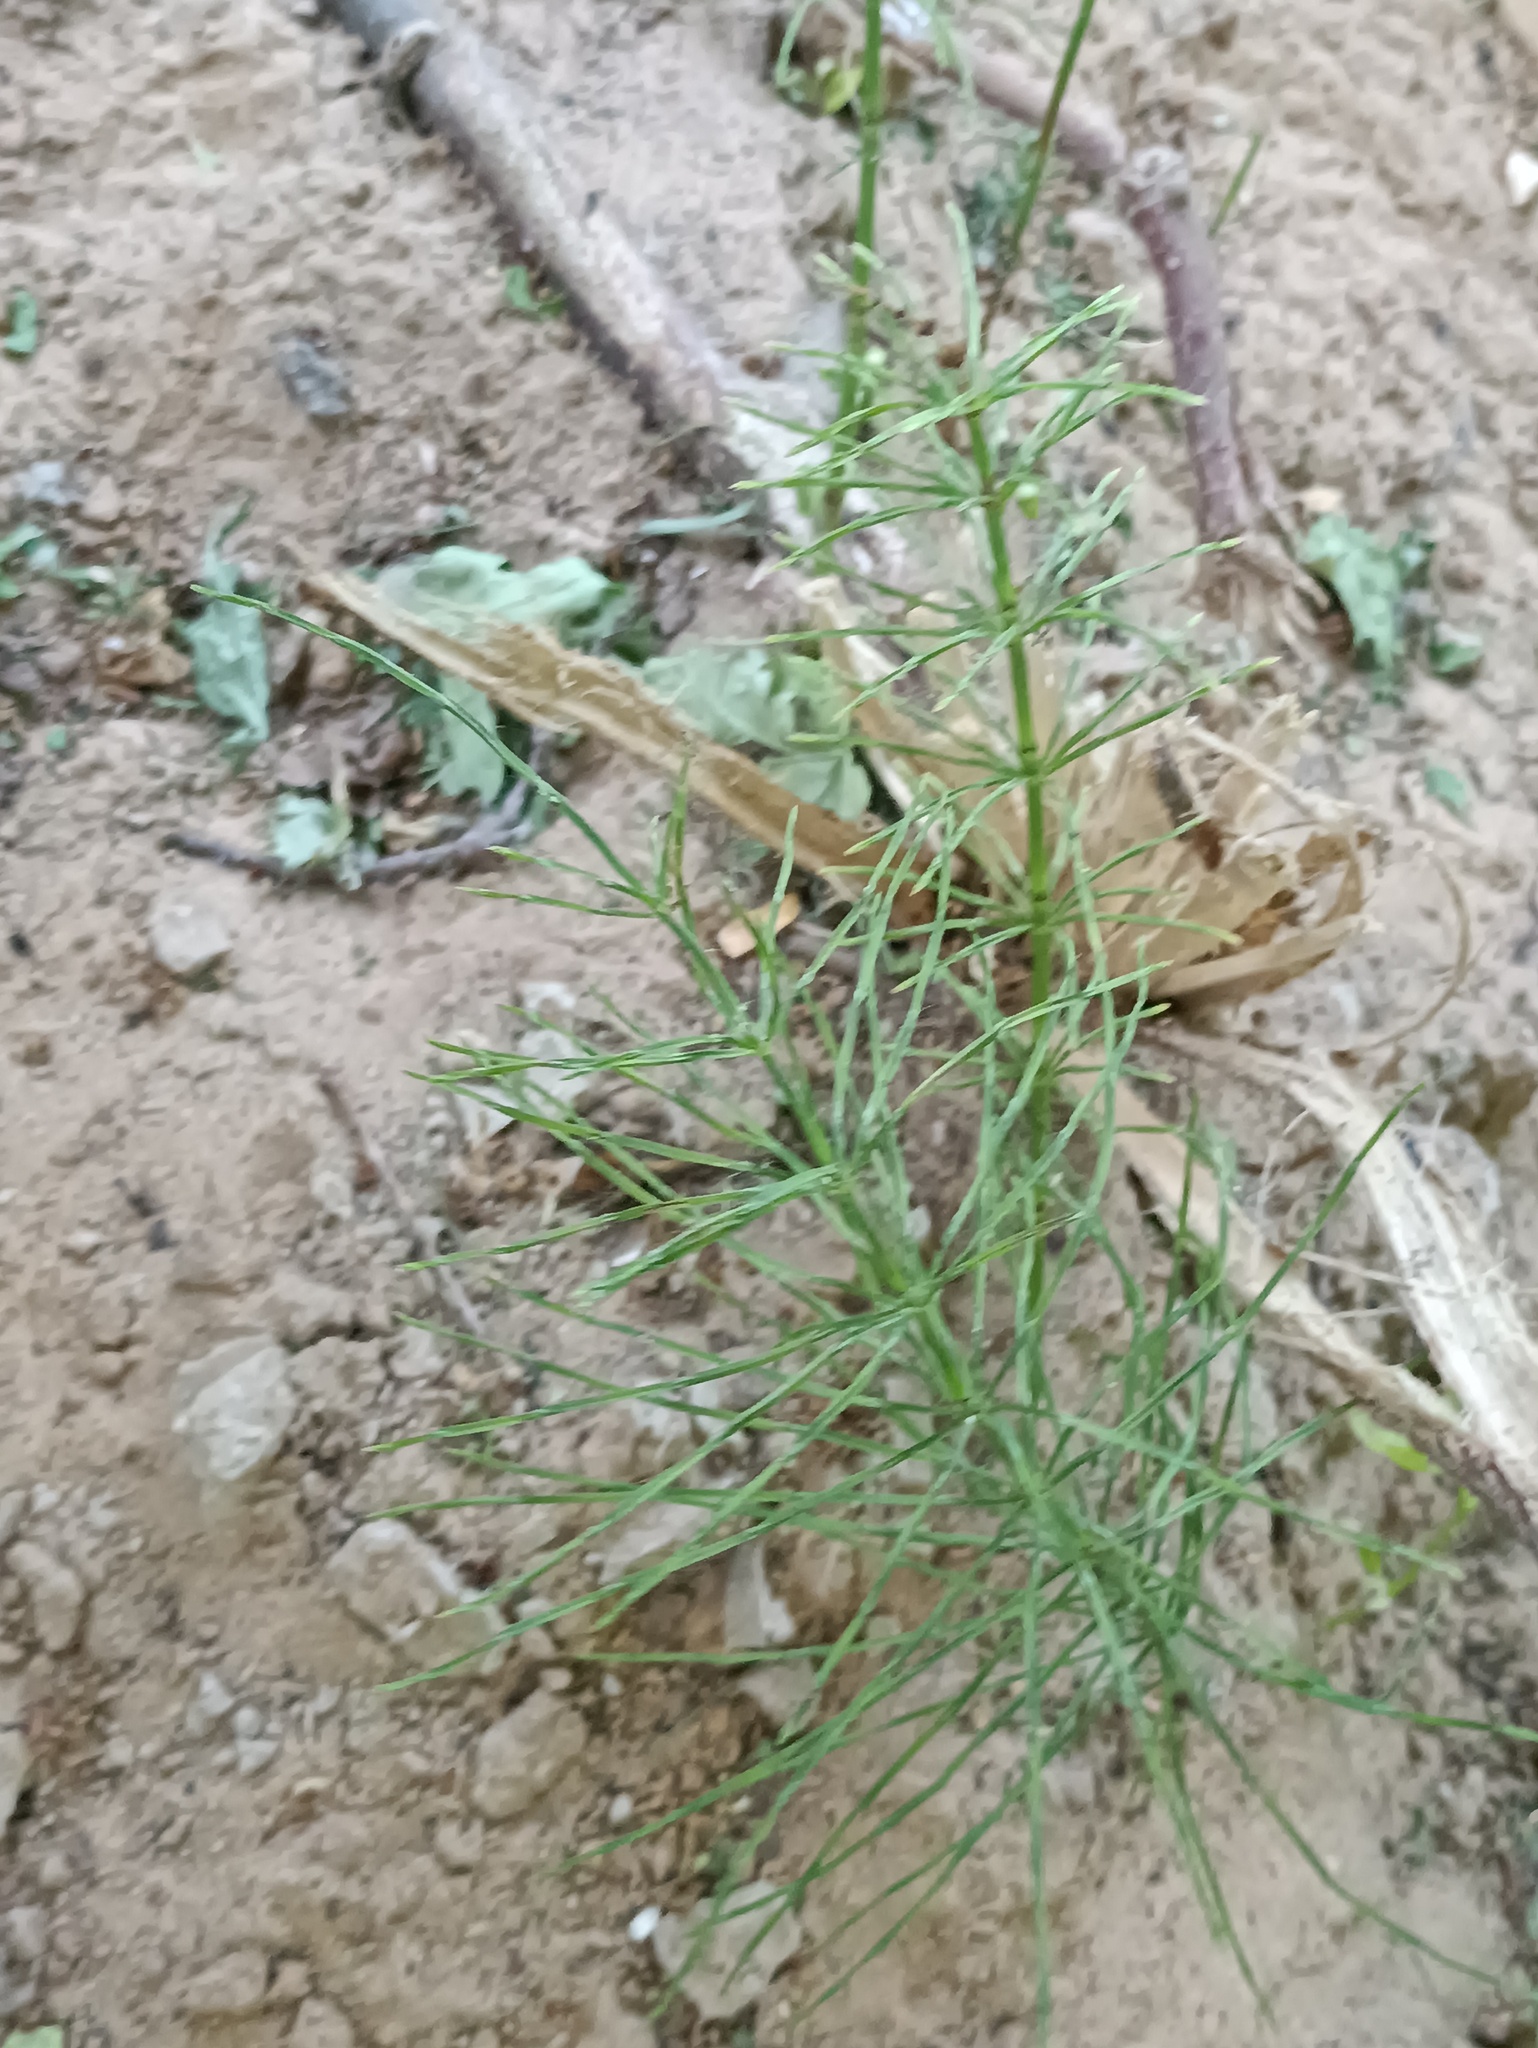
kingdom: Plantae
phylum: Tracheophyta
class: Polypodiopsida
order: Equisetales
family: Equisetaceae
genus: Equisetum
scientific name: Equisetum arvense
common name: Field horsetail
